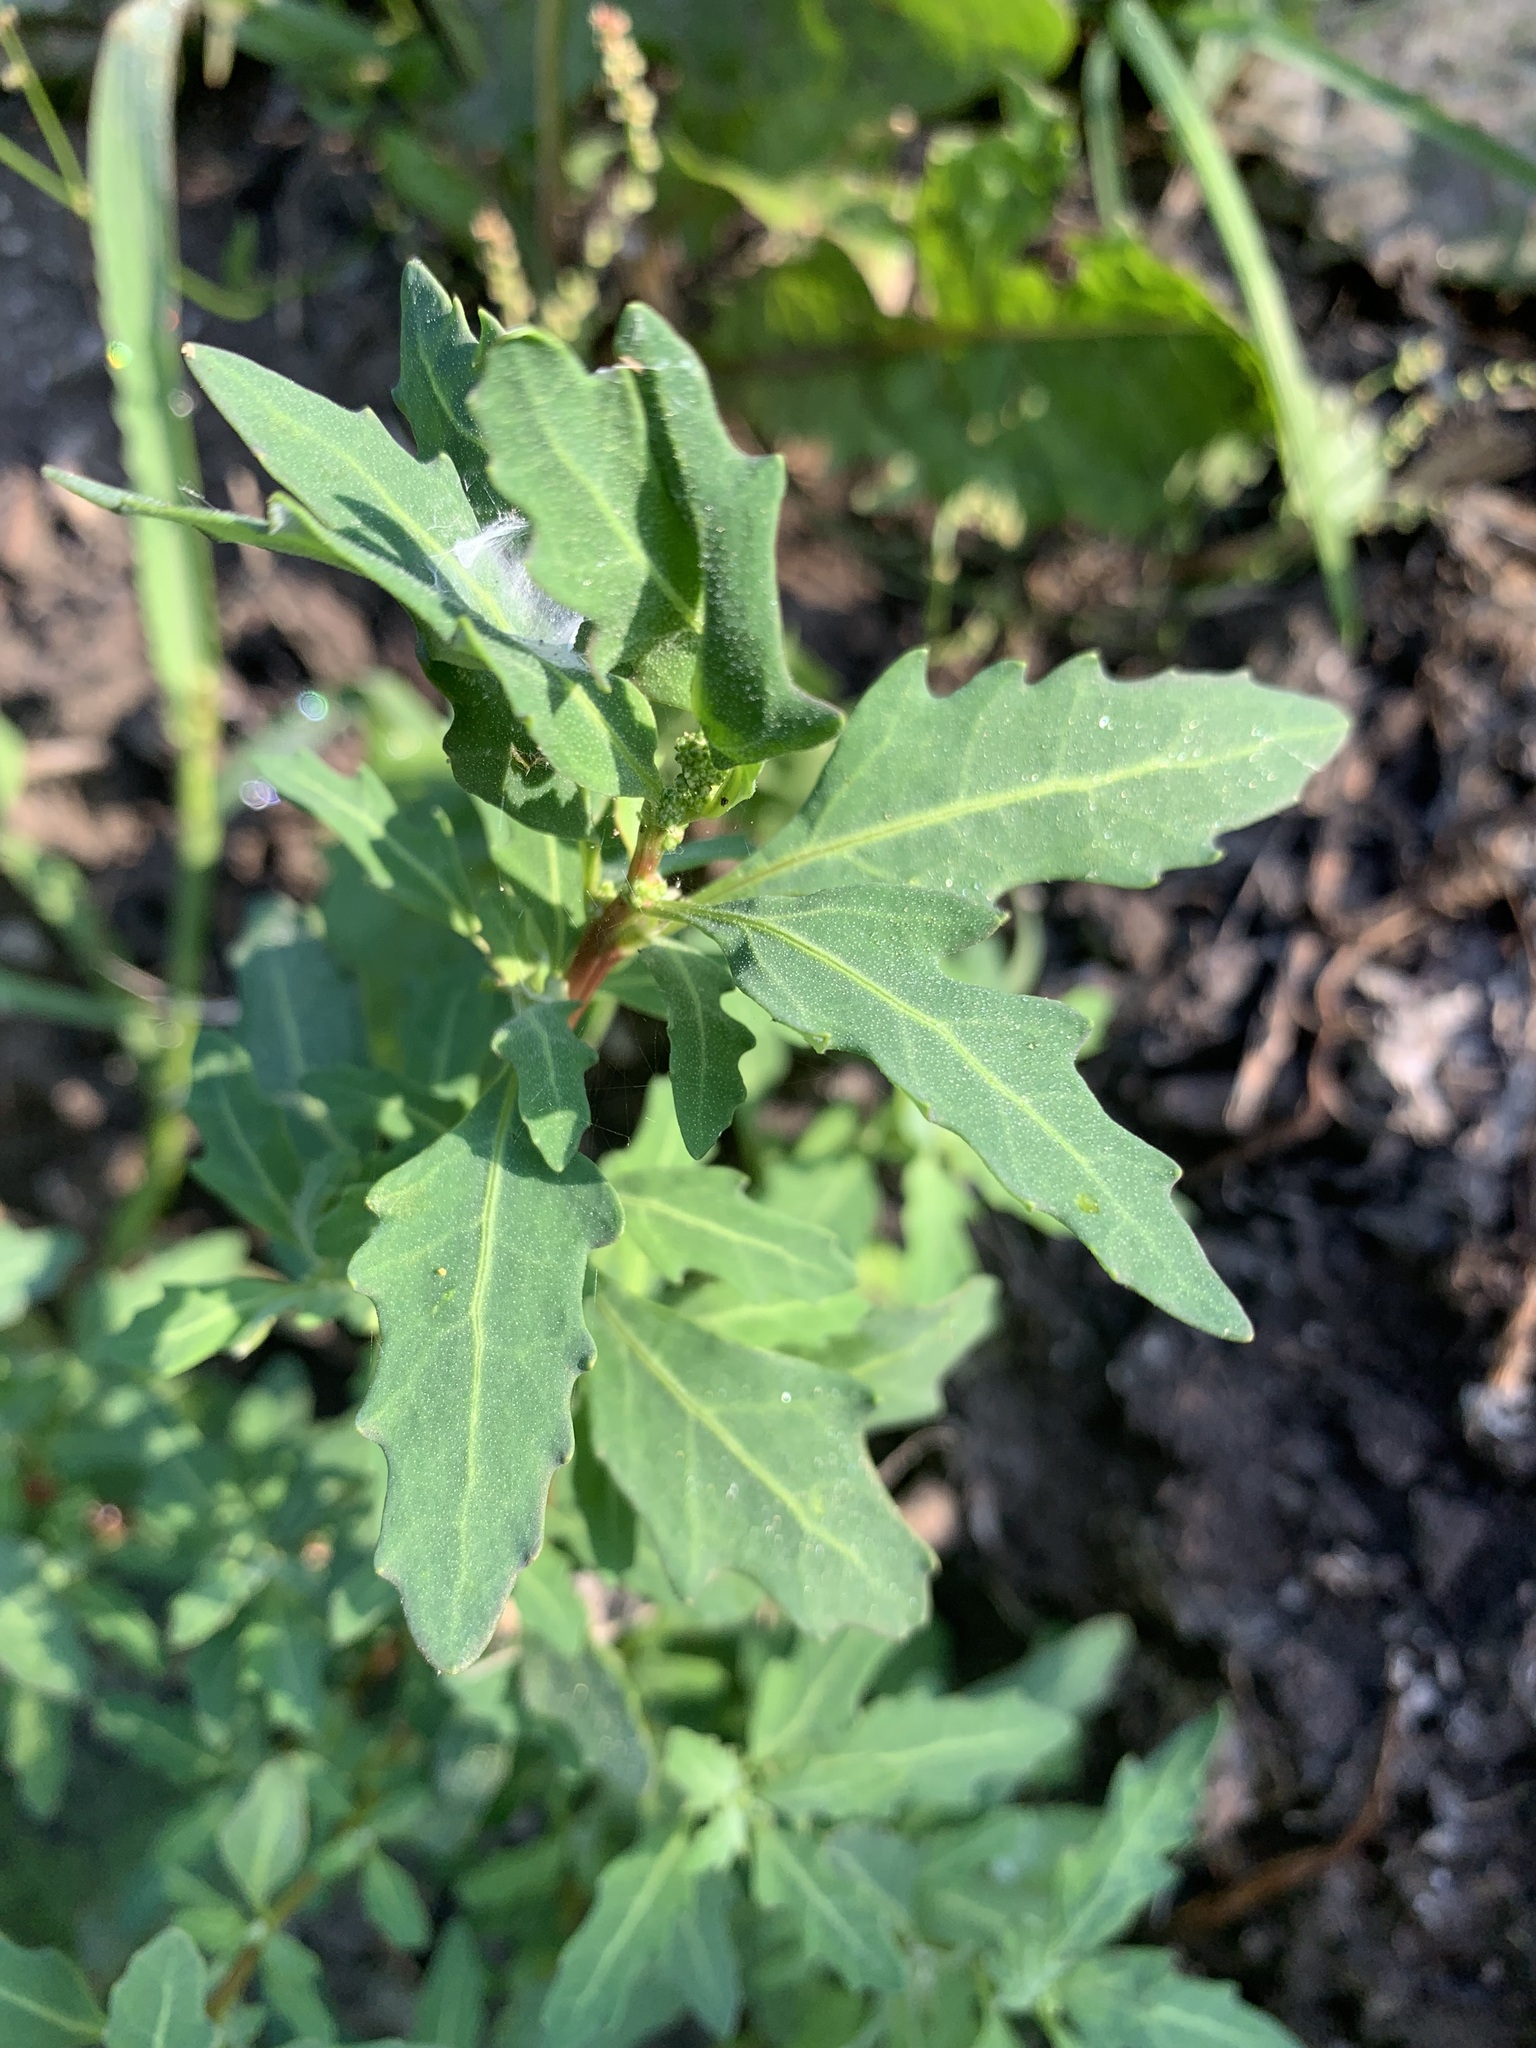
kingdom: Plantae
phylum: Tracheophyta
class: Magnoliopsida
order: Caryophyllales
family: Amaranthaceae
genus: Oxybasis
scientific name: Oxybasis glauca
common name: Glaucous goosefoot
